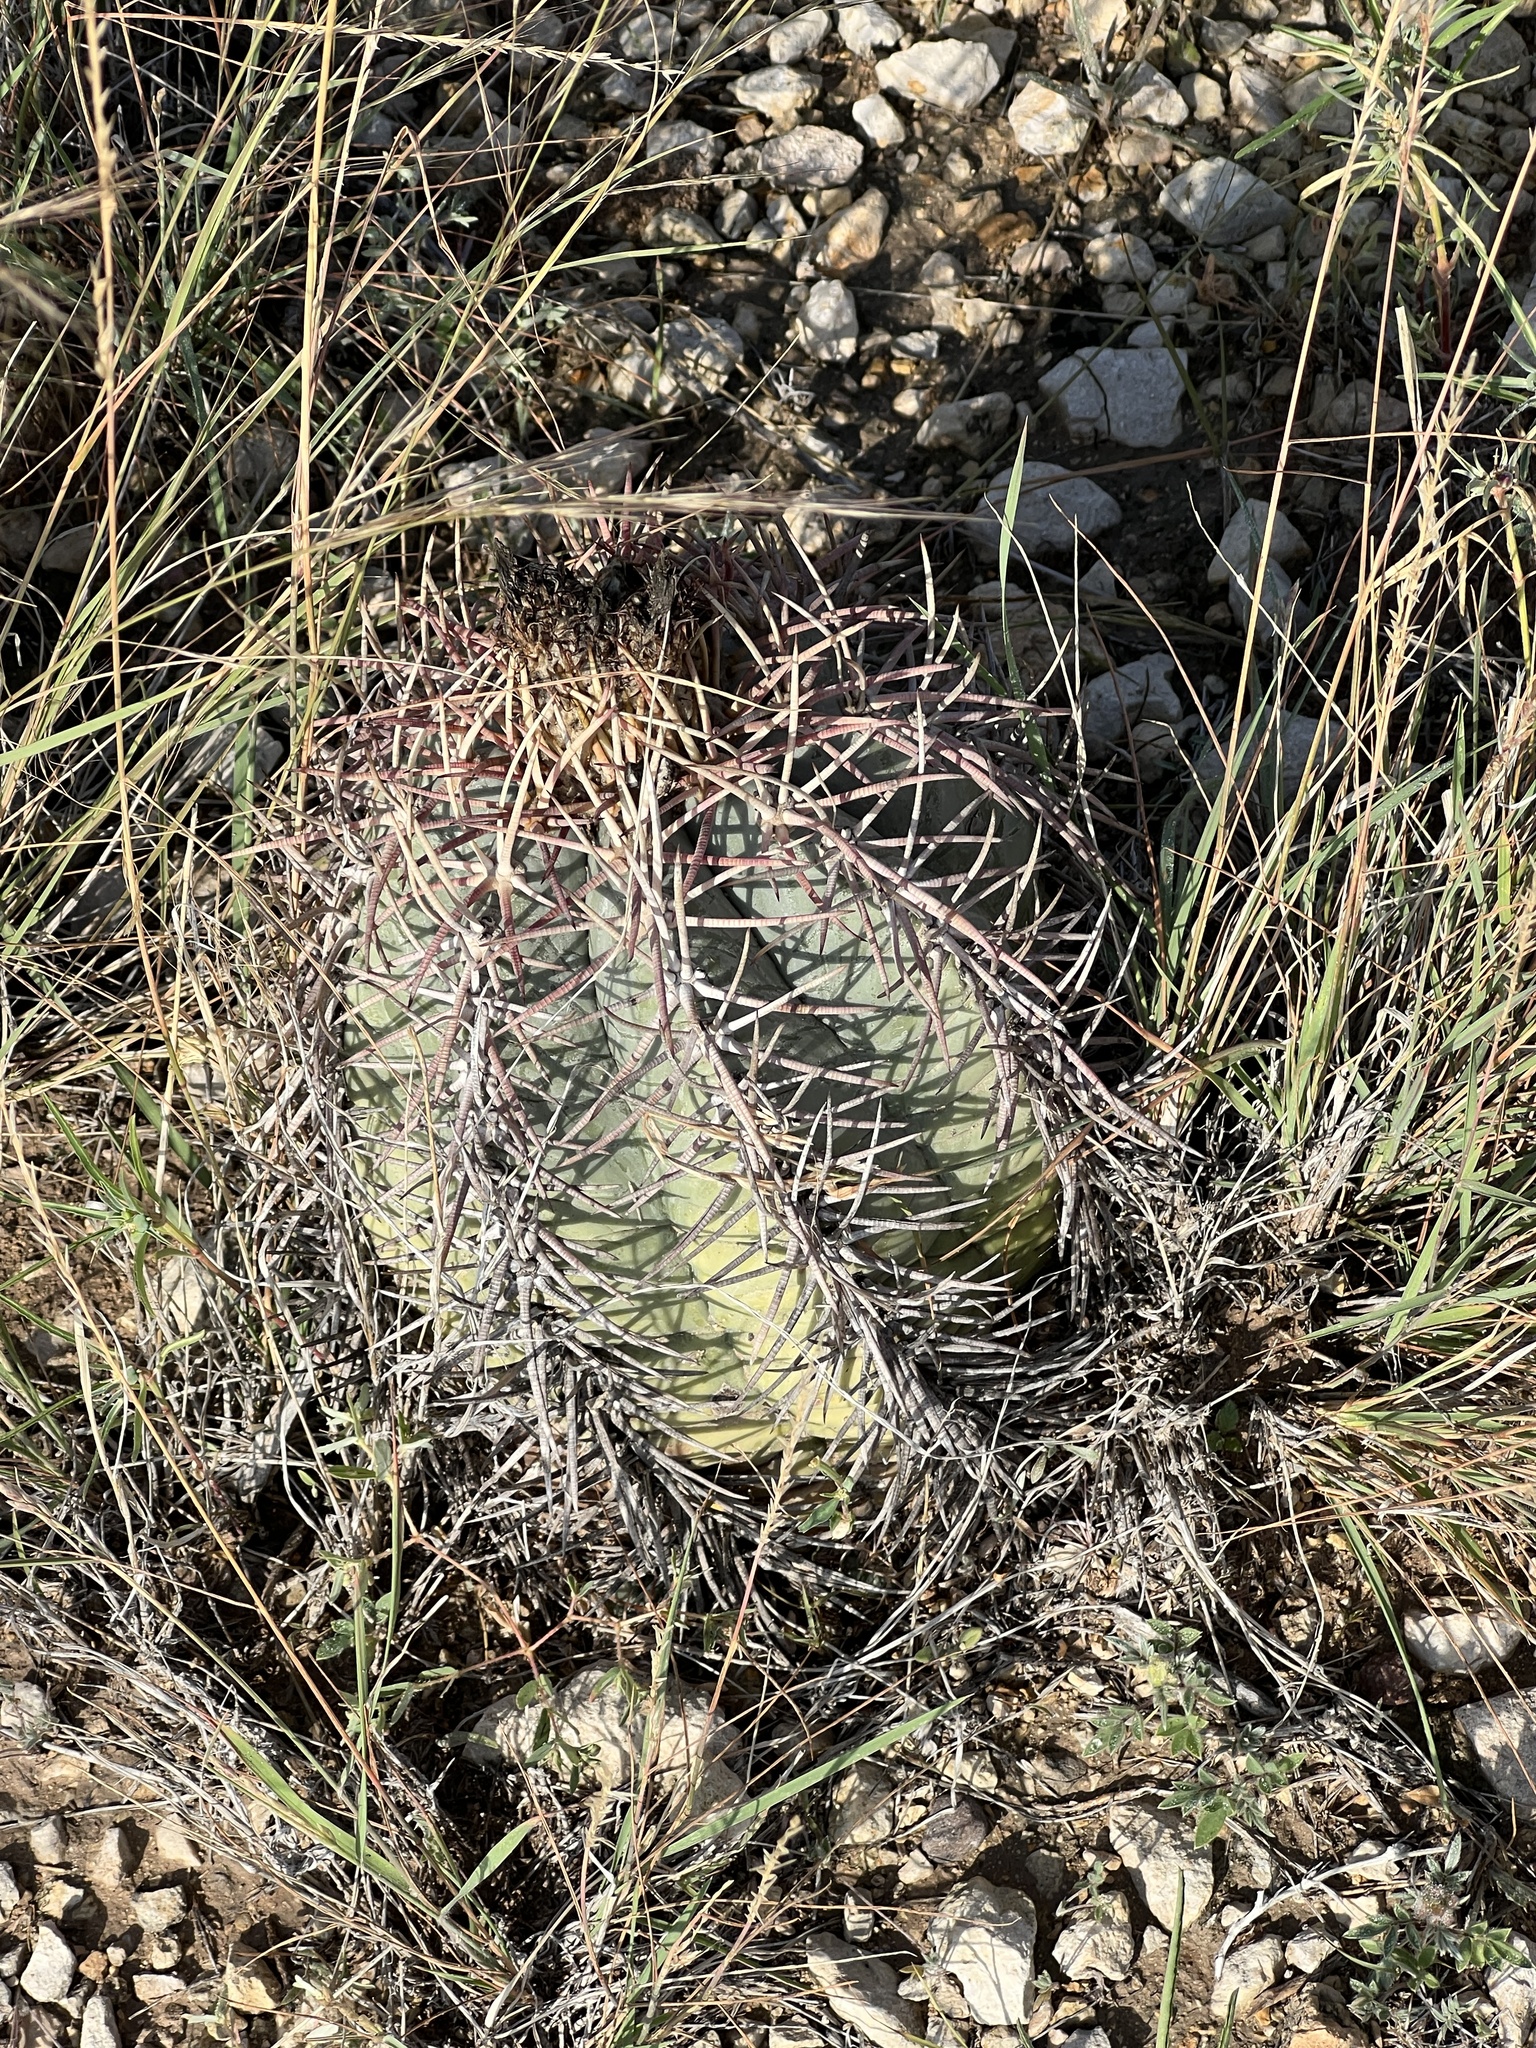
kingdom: Plantae
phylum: Tracheophyta
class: Magnoliopsida
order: Caryophyllales
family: Cactaceae
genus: Echinocactus
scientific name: Echinocactus horizonthalonius
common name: Devilshead
